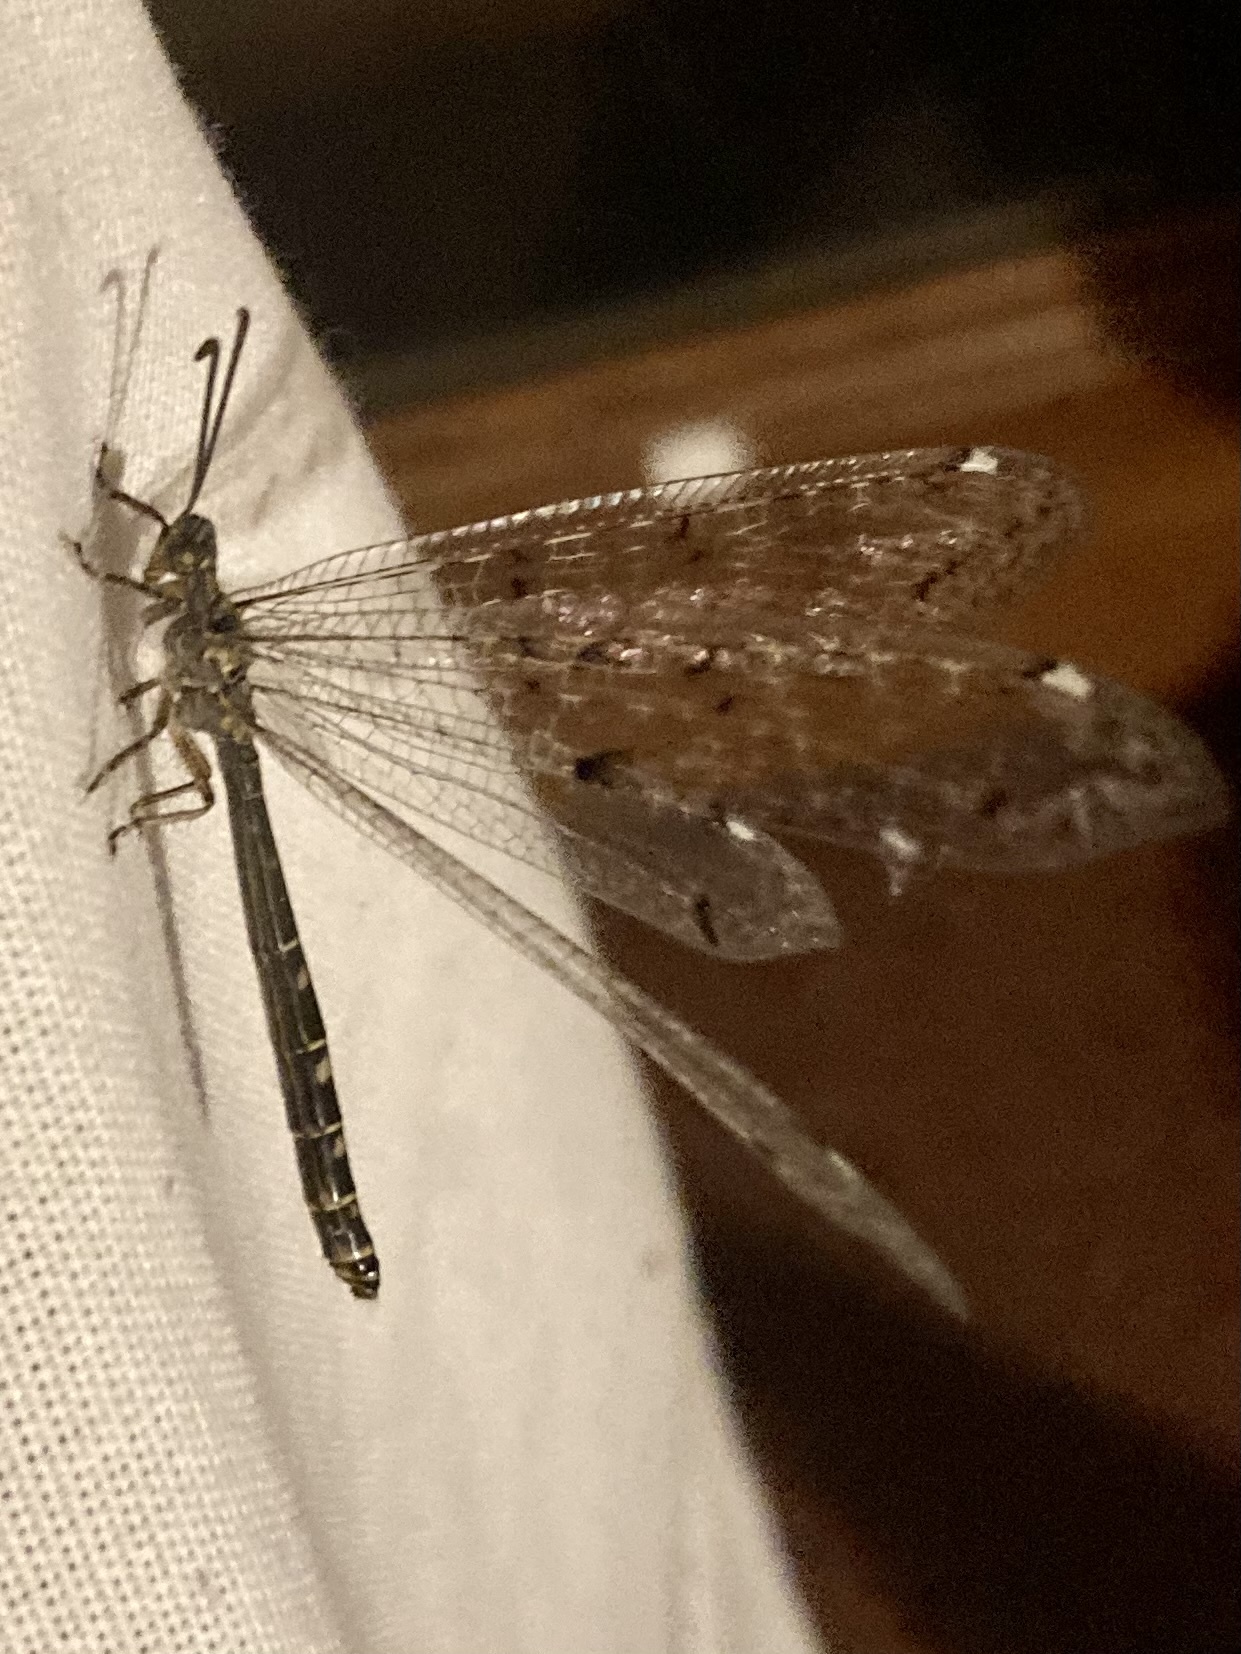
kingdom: Animalia
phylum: Arthropoda
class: Insecta
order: Neuroptera
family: Myrmeleontidae
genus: Distoleon
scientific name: Distoleon tetragrammicus
